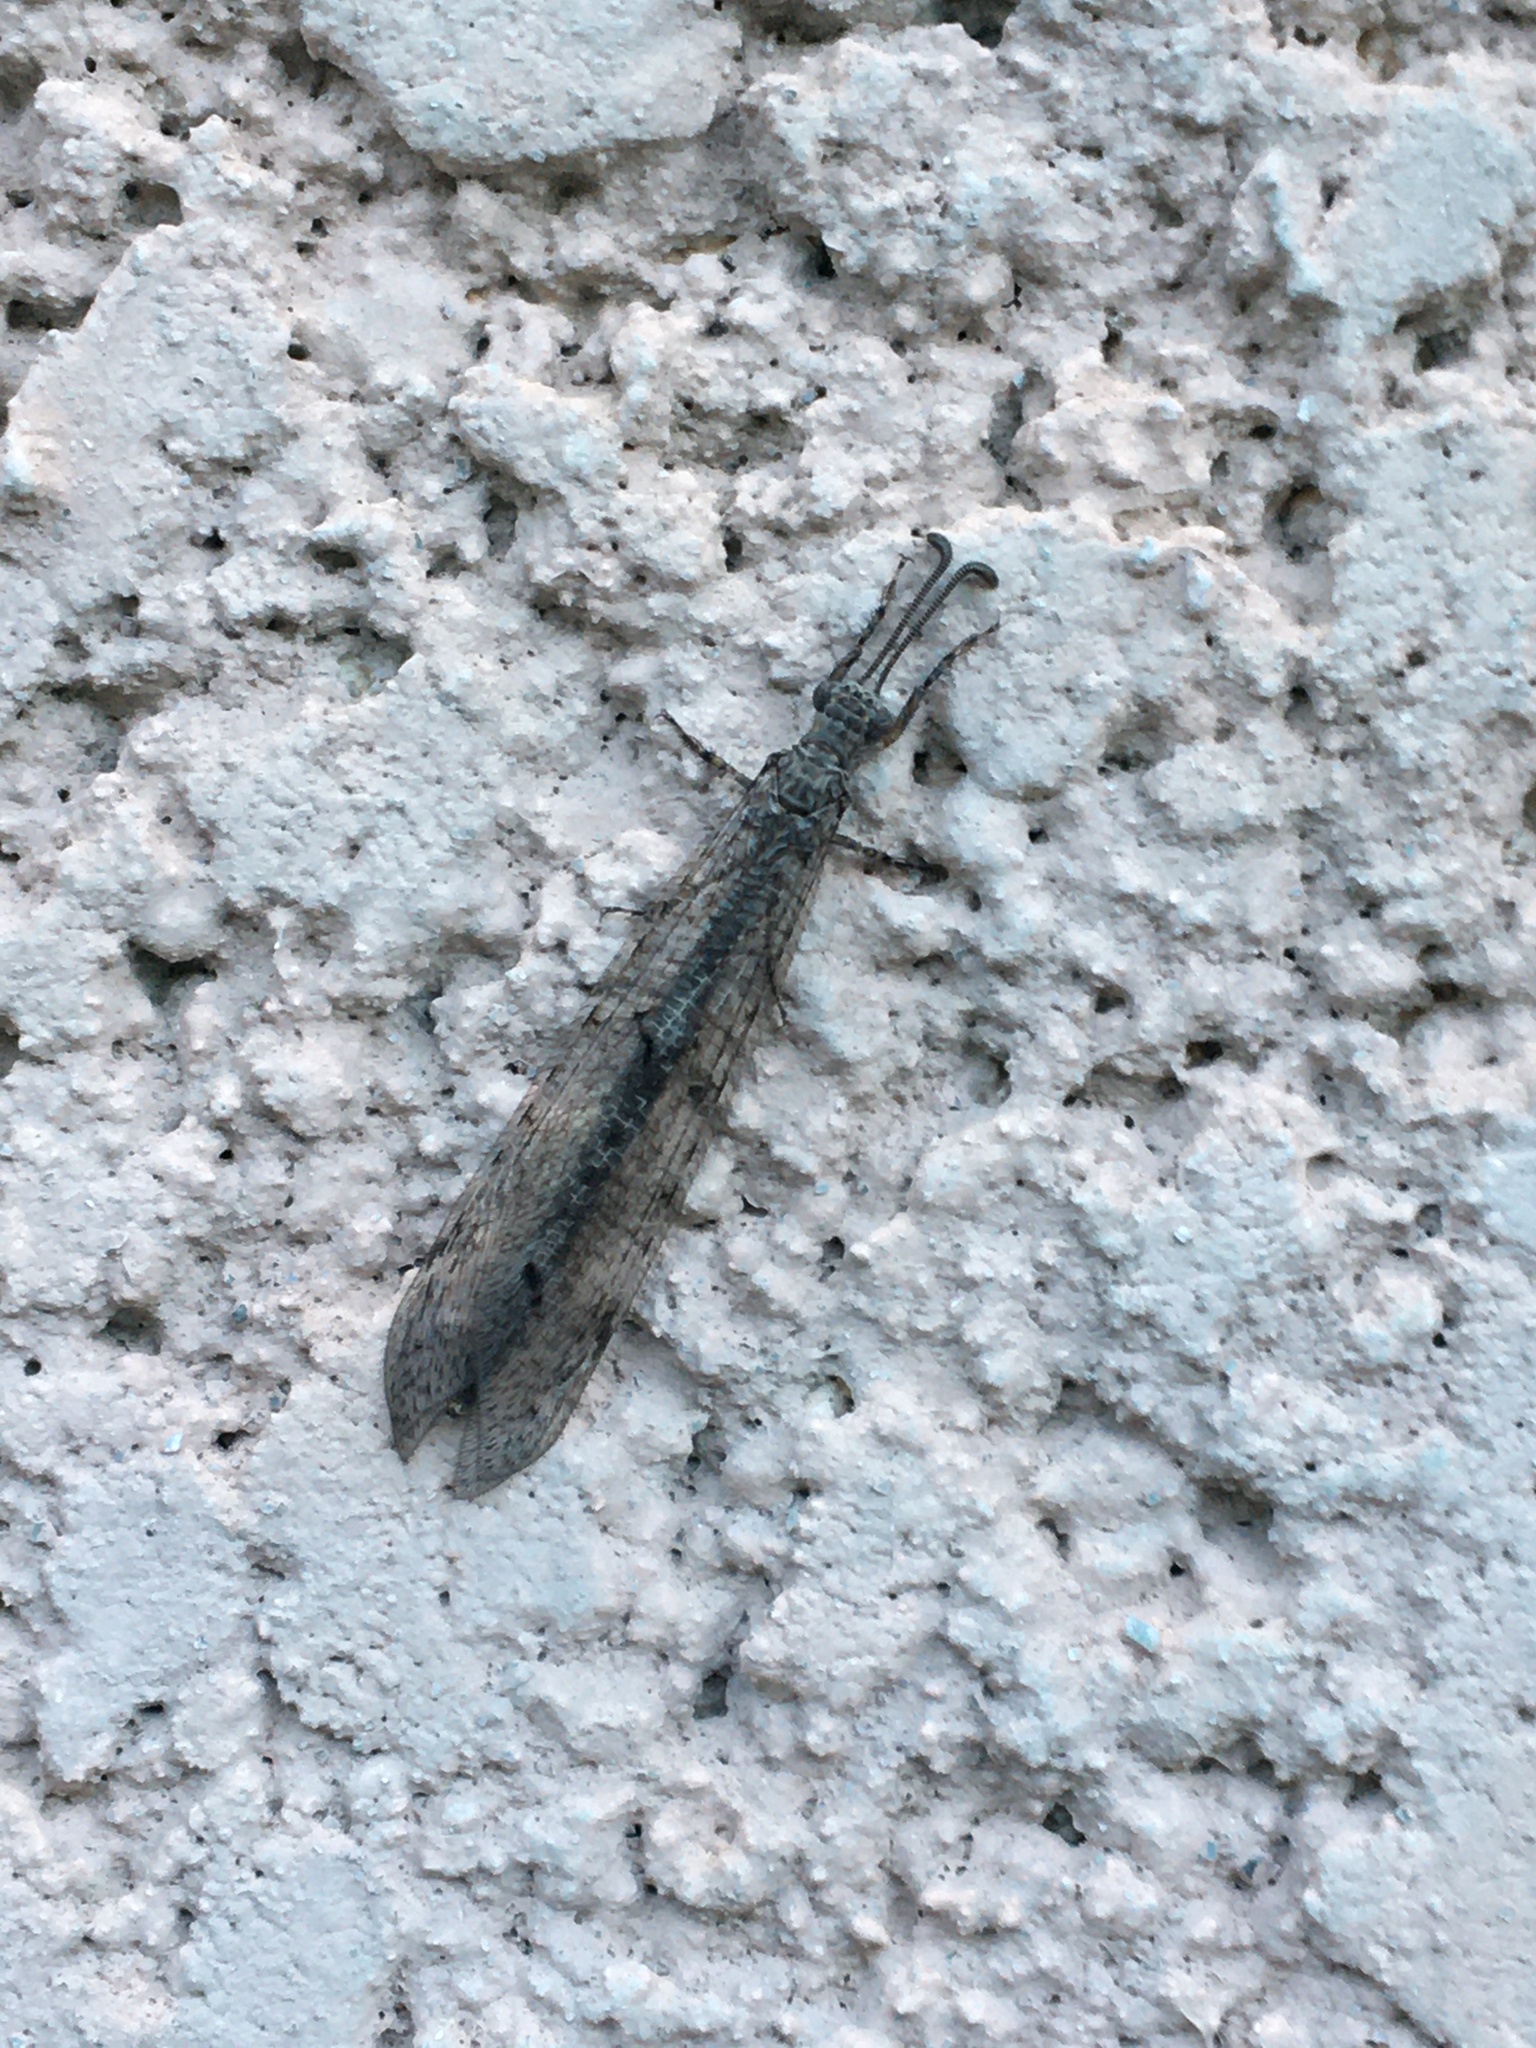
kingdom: Animalia
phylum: Arthropoda
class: Insecta
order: Neuroptera
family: Myrmeleontidae
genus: Creoleon
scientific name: Creoleon africanus
